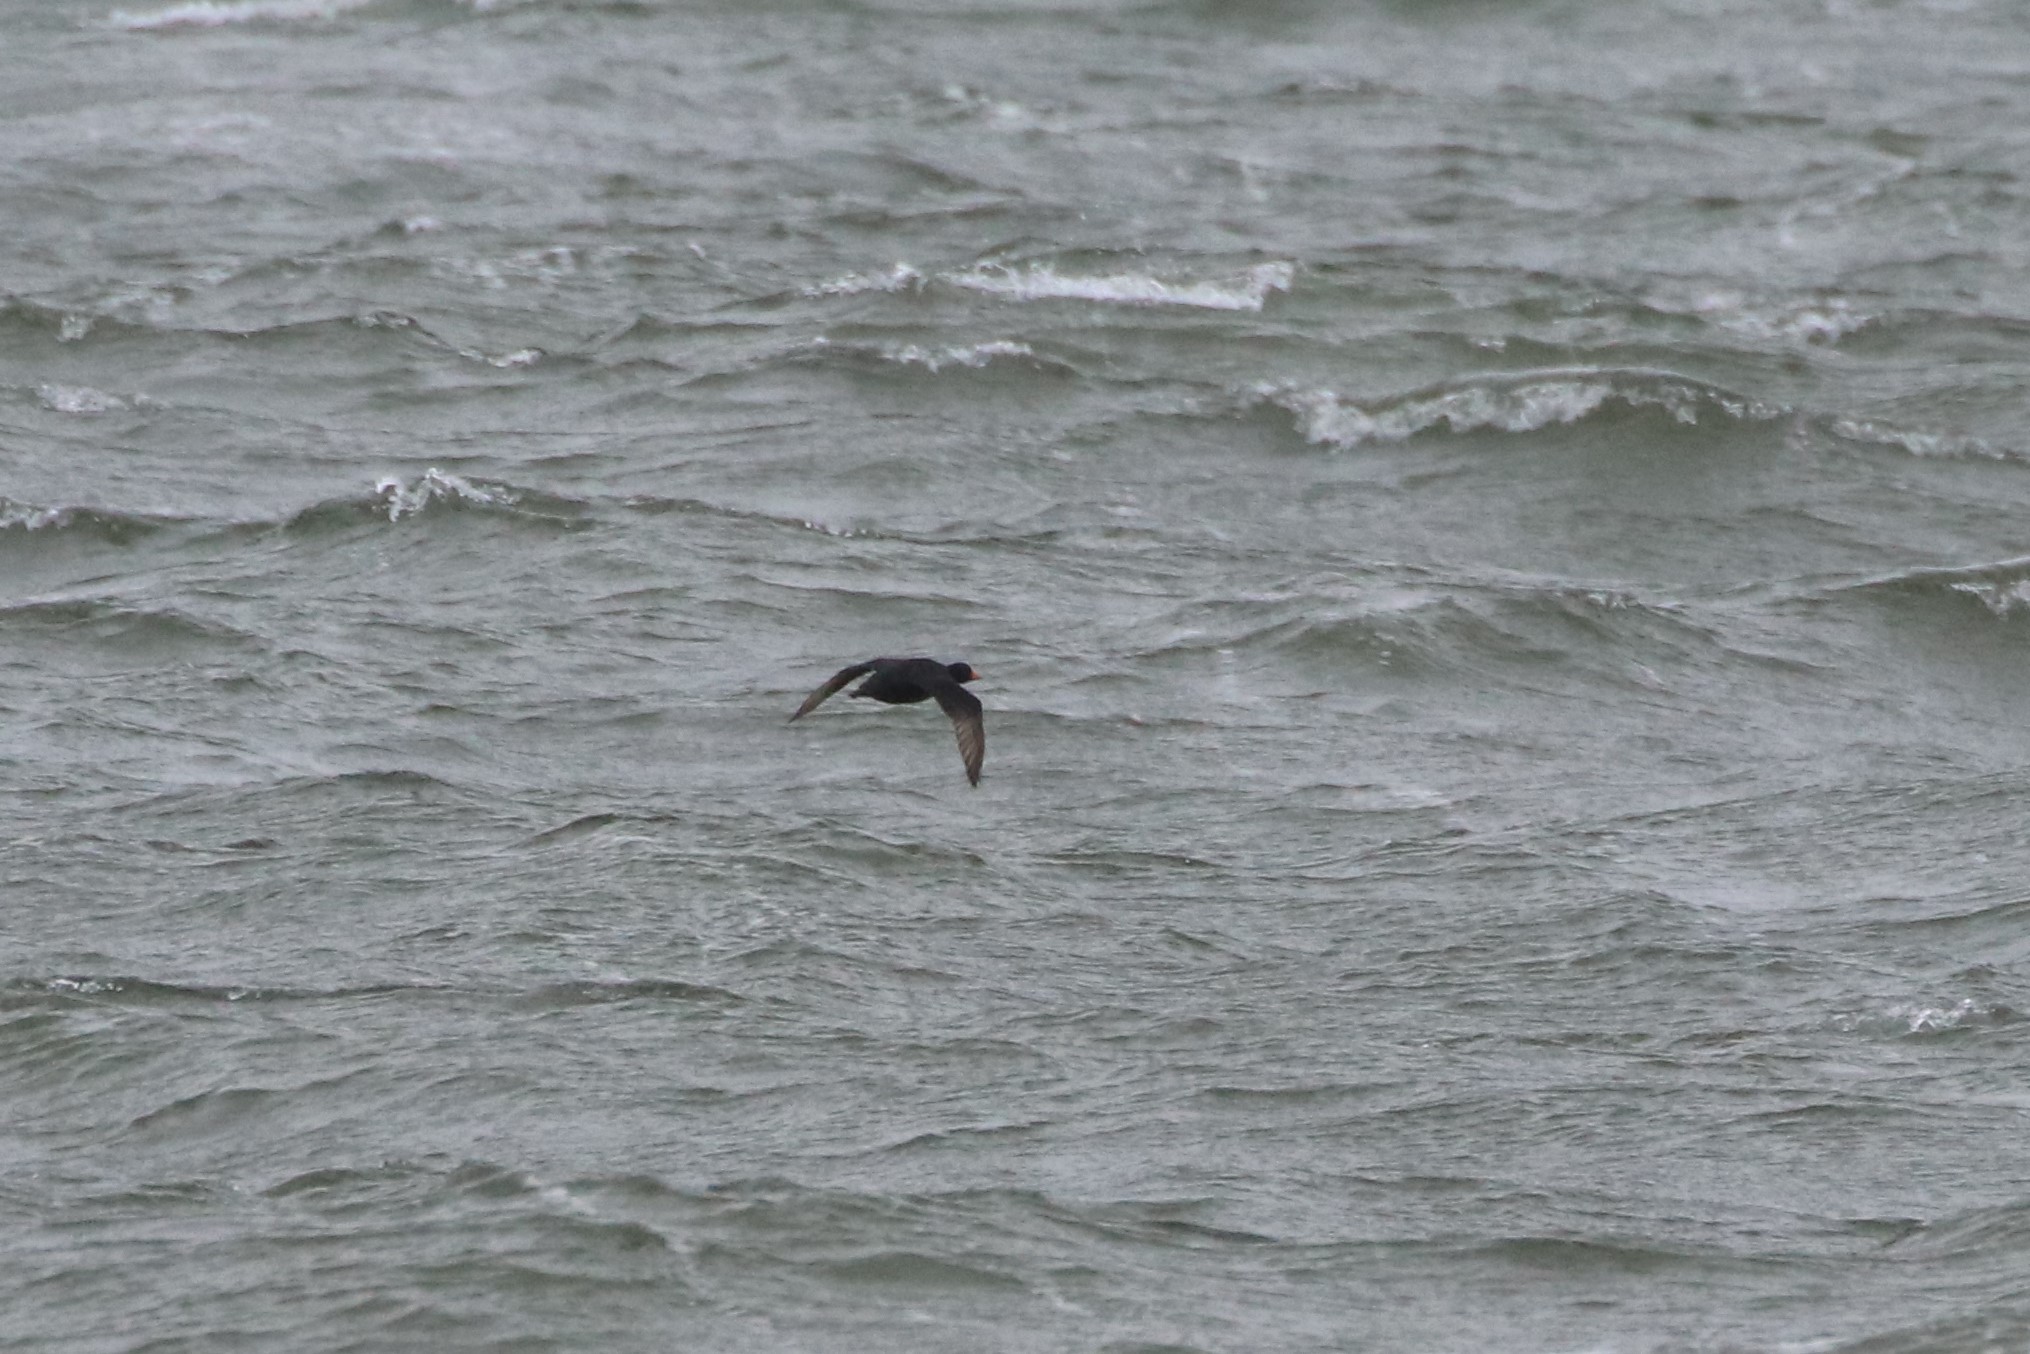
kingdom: Animalia
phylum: Chordata
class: Aves
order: Anseriformes
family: Anatidae
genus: Melanitta
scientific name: Melanitta americana
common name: Black scoter
